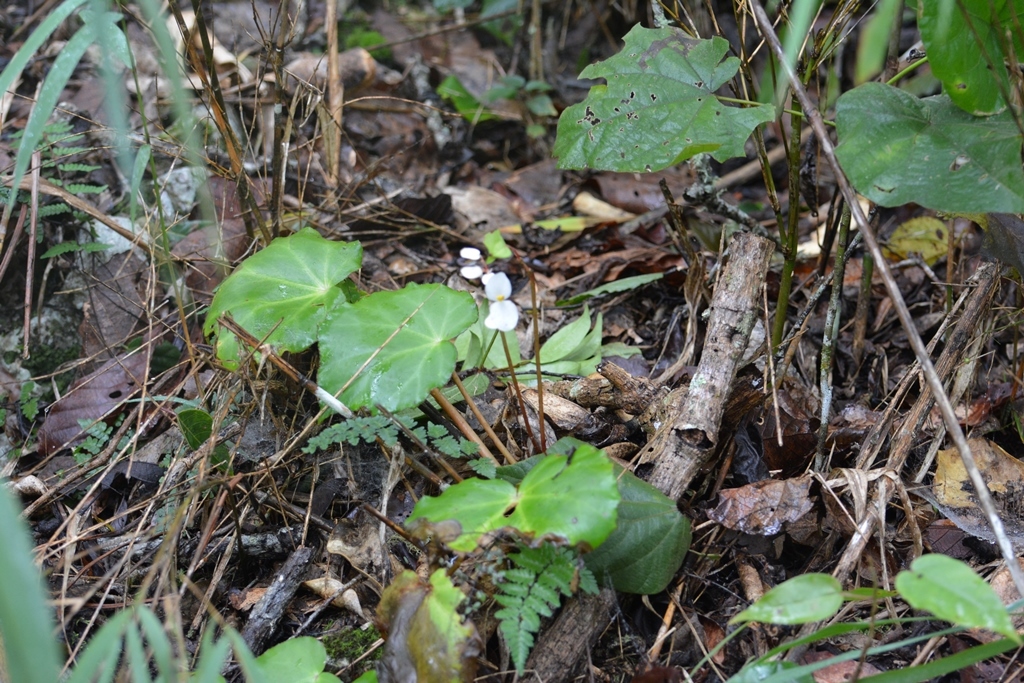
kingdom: Plantae
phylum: Tracheophyta
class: Magnoliopsida
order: Cucurbitales
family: Begoniaceae
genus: Begonia
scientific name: Begonia pinetorum
